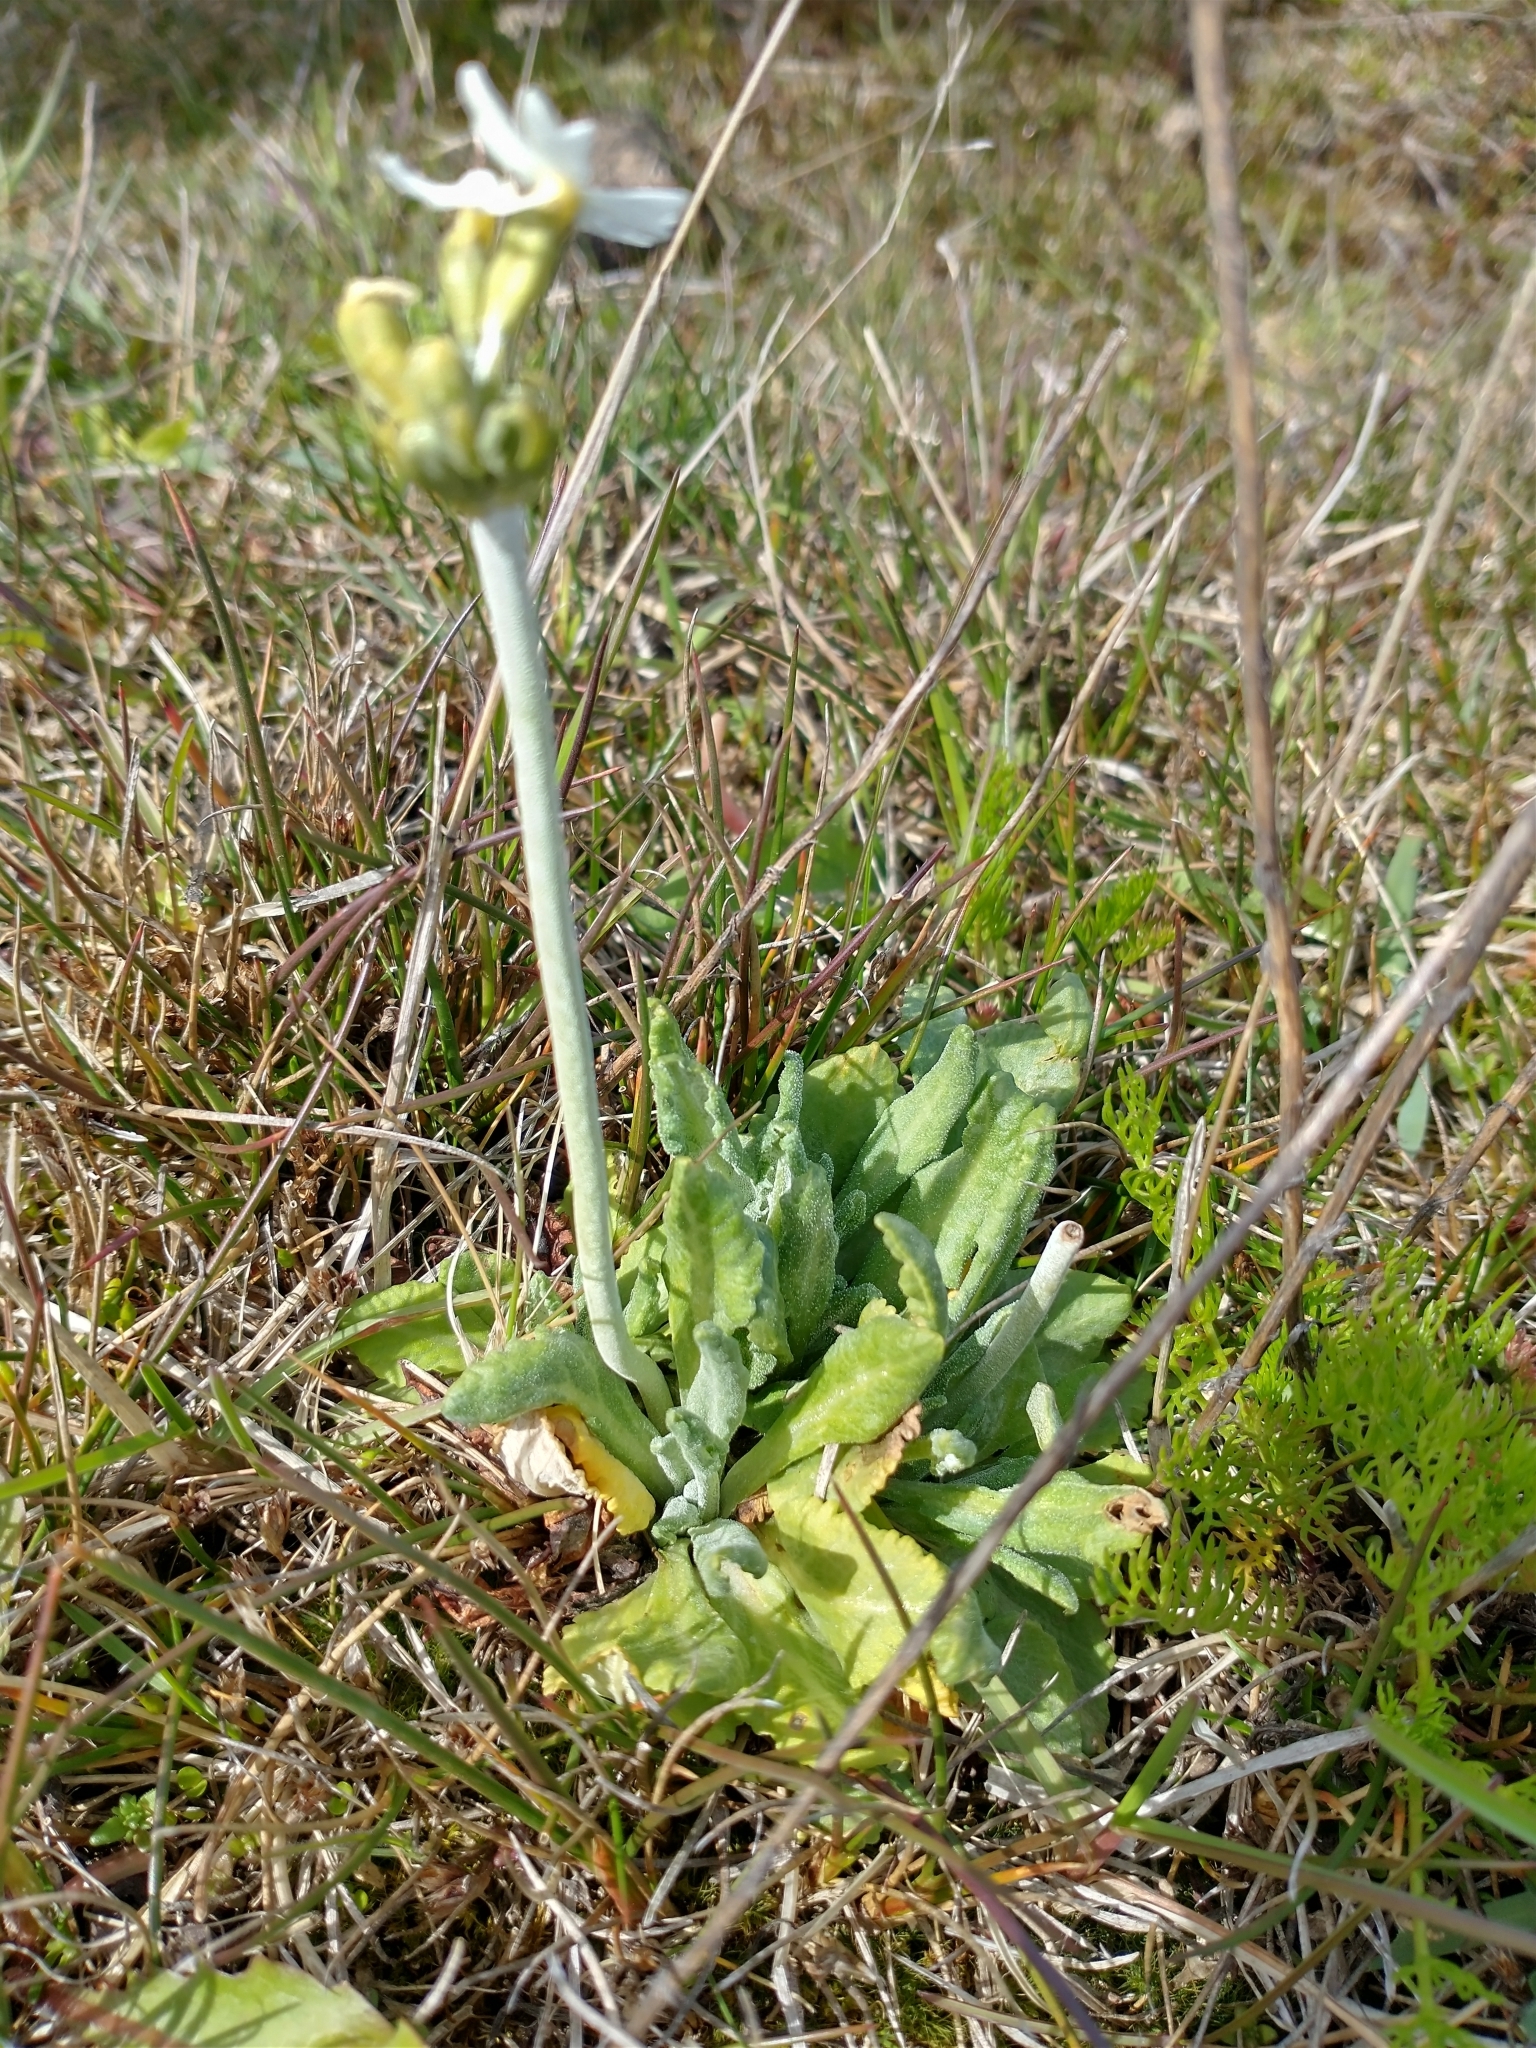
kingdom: Plantae
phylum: Tracheophyta
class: Magnoliopsida
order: Ericales
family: Primulaceae
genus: Primula
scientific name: Primula magellanica
